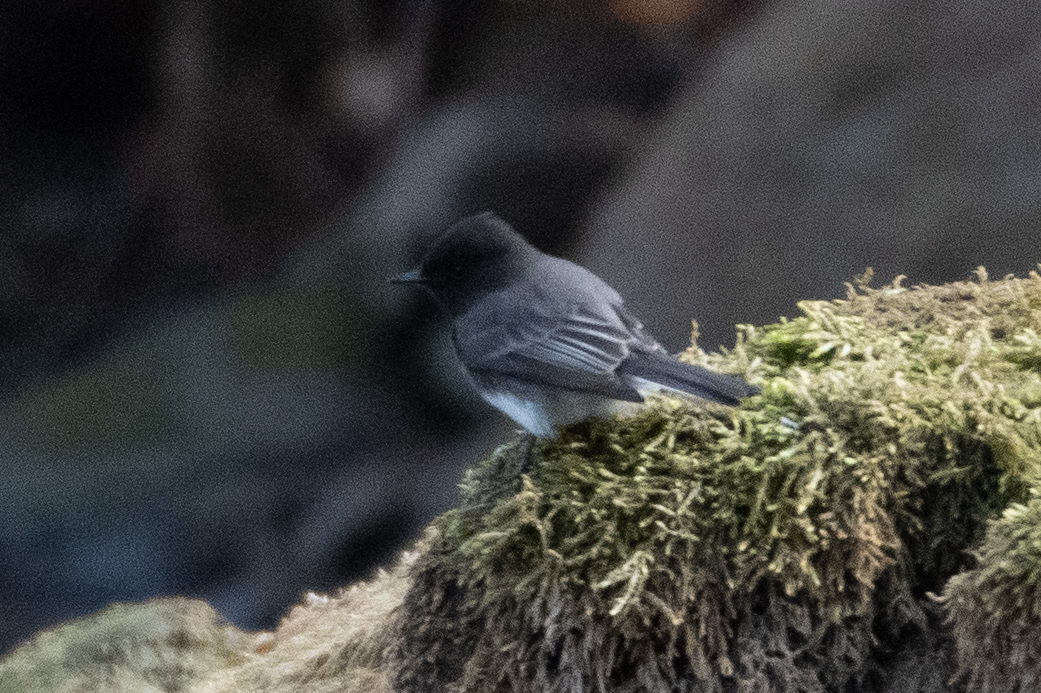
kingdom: Animalia
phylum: Chordata
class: Aves
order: Passeriformes
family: Tyrannidae
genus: Sayornis
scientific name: Sayornis nigricans
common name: Black phoebe
